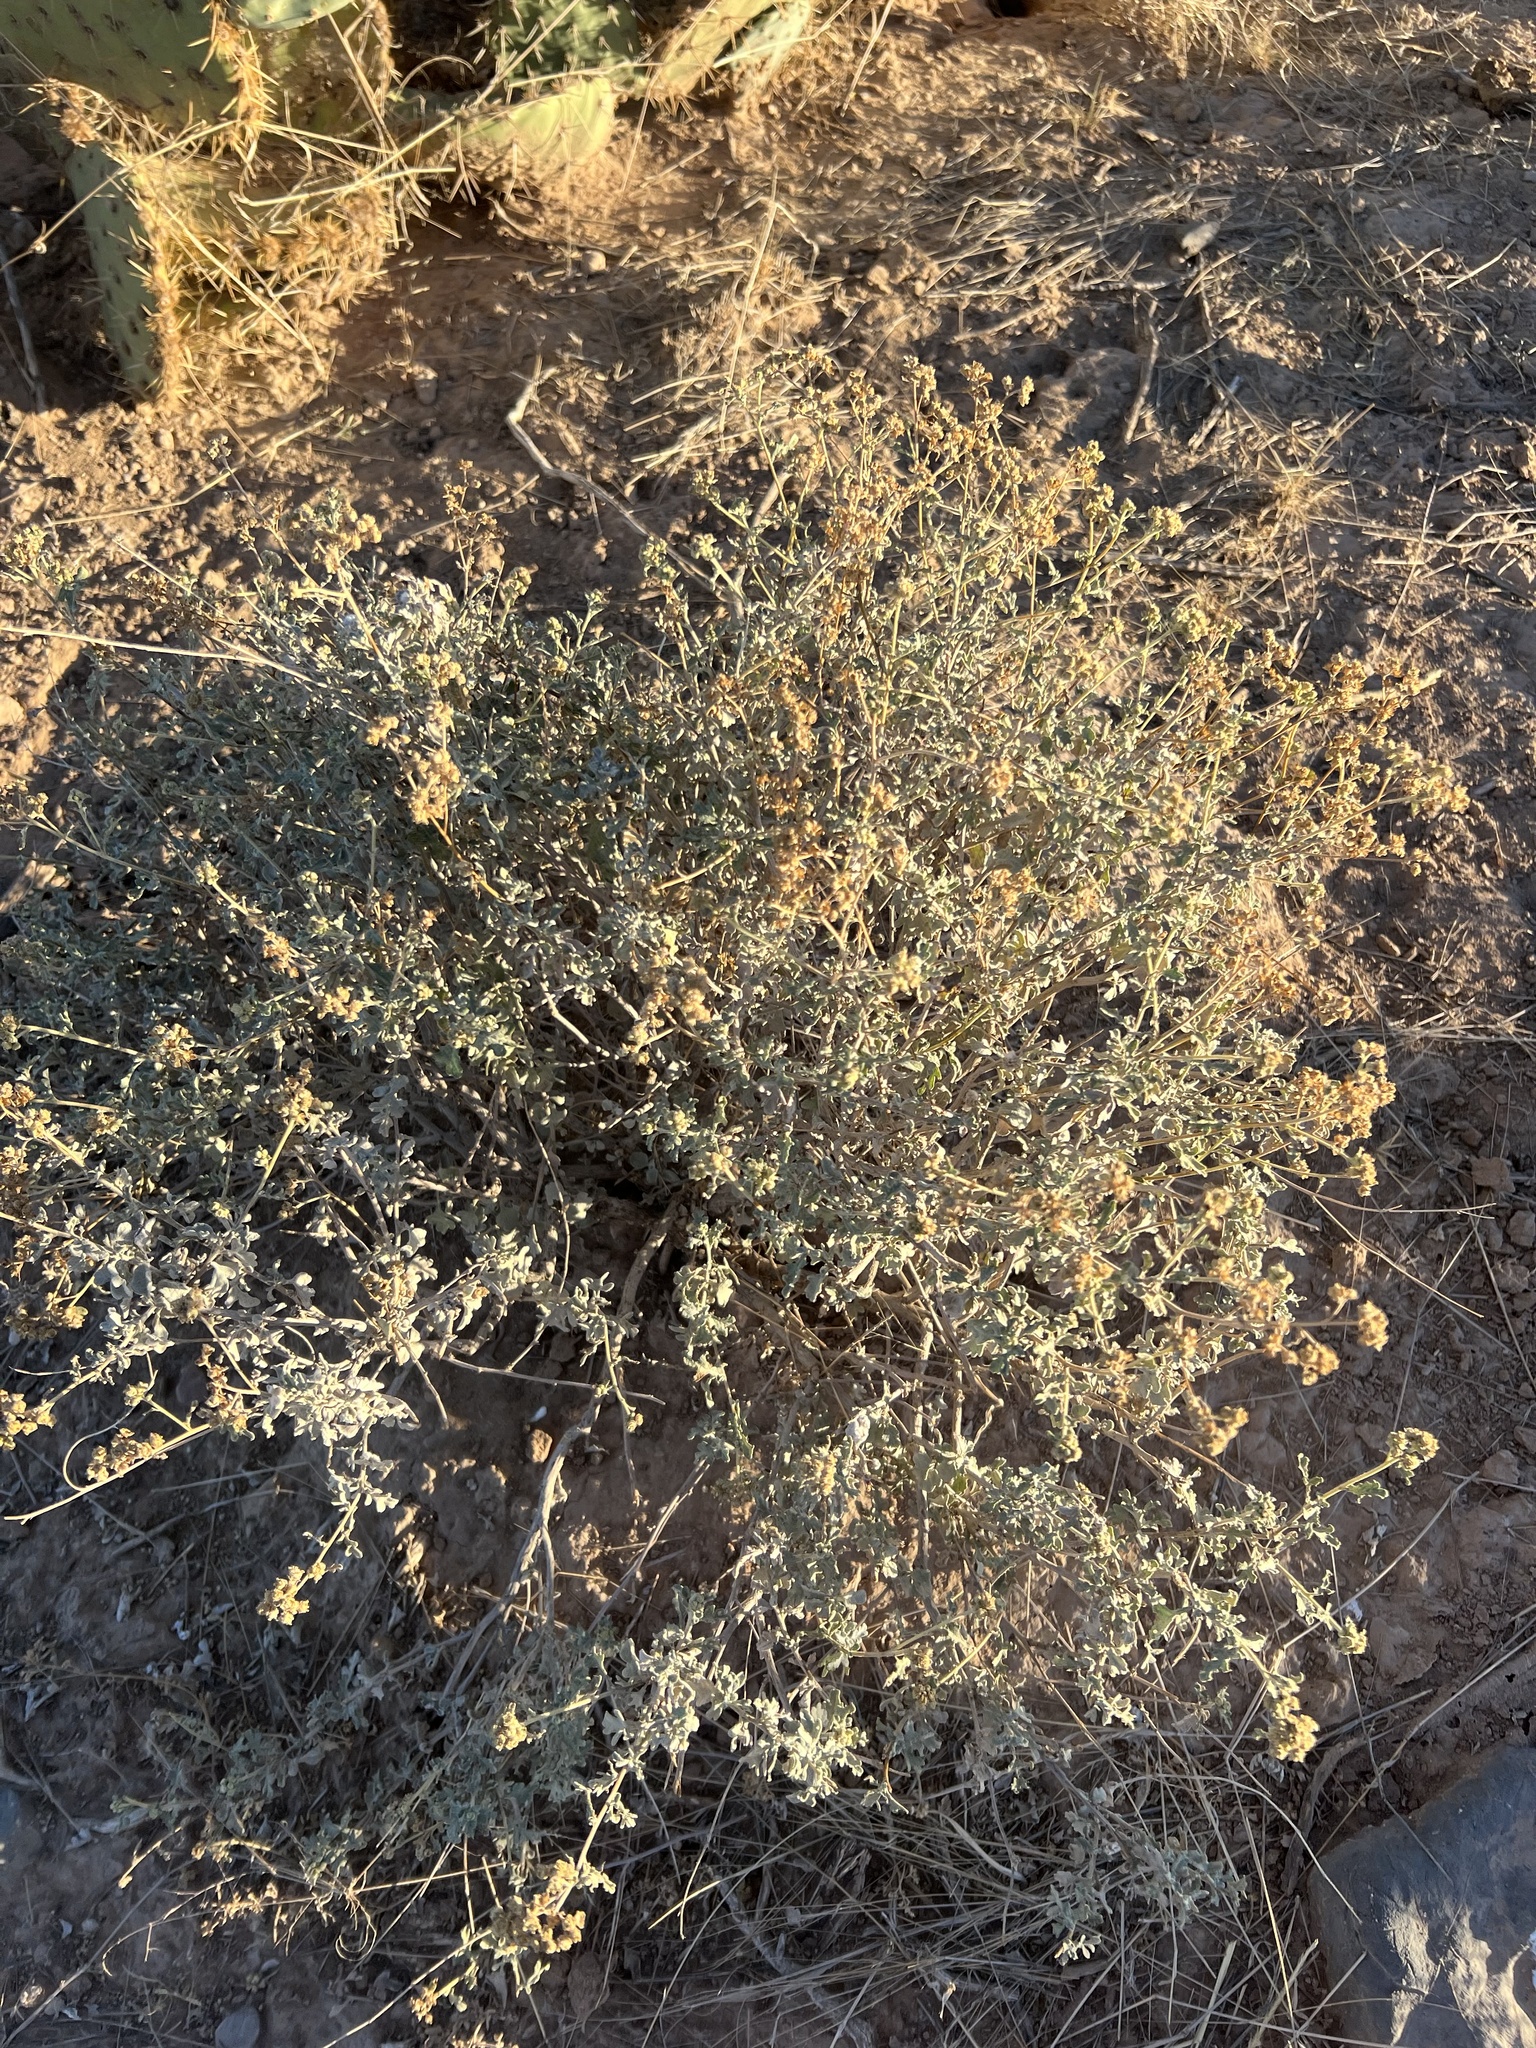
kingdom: Plantae
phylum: Tracheophyta
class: Magnoliopsida
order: Asterales
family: Asteraceae
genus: Parthenium
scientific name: Parthenium incanum
